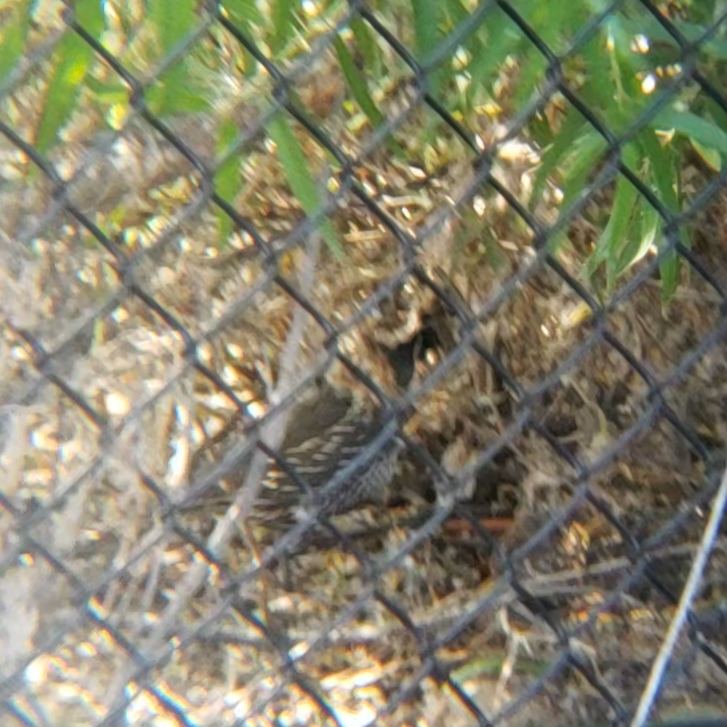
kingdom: Animalia
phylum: Chordata
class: Aves
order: Galliformes
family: Odontophoridae
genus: Callipepla
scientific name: Callipepla californica
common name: California quail
